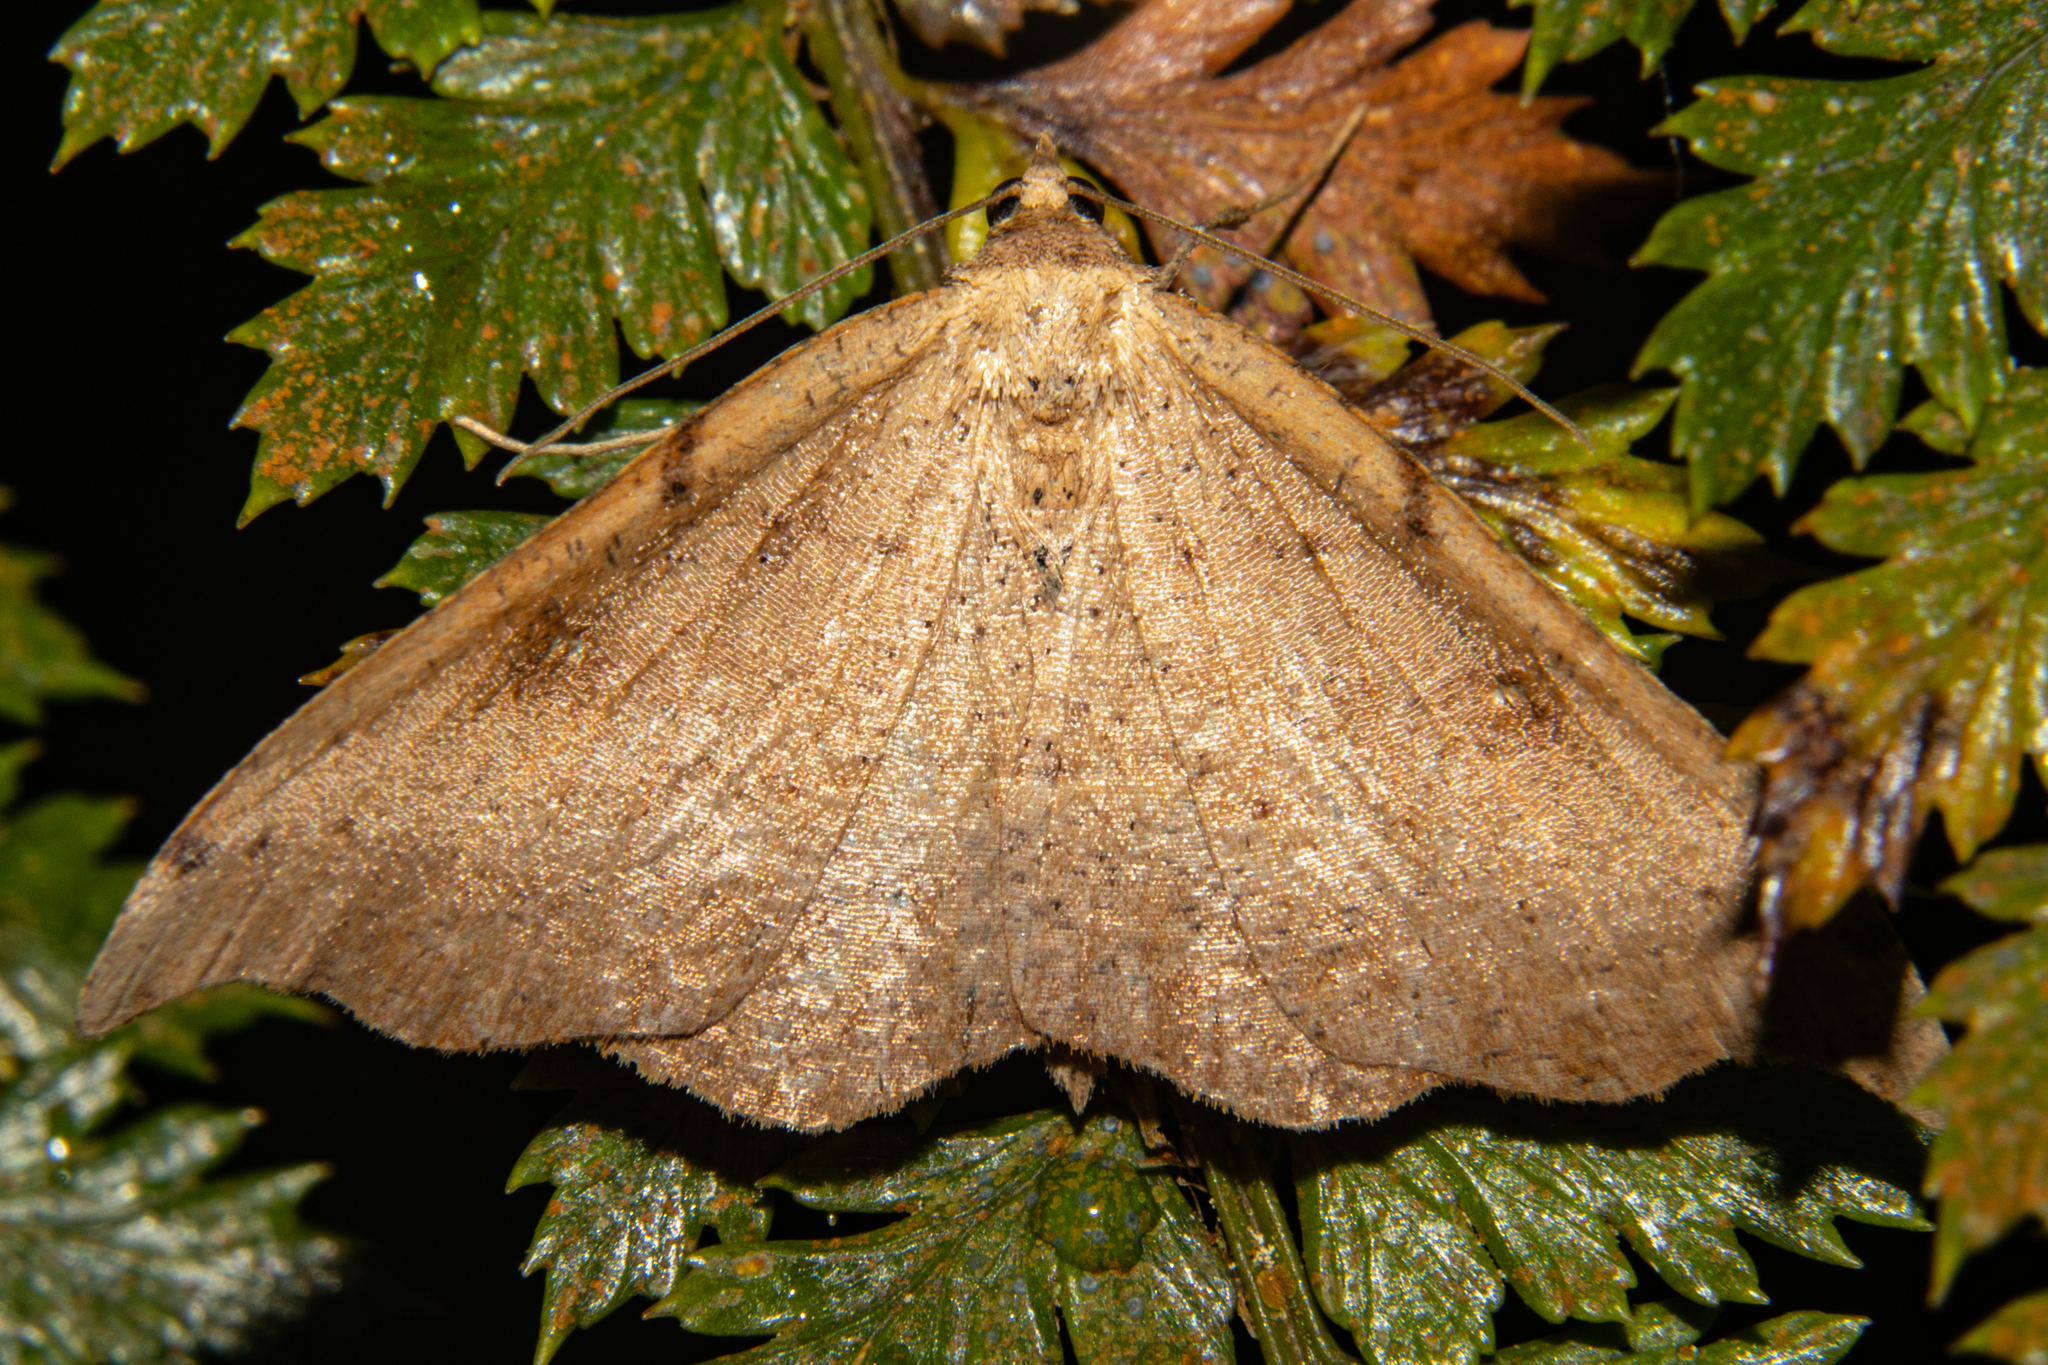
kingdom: Animalia
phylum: Arthropoda
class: Insecta
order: Lepidoptera
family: Geometridae
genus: Sarisa
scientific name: Sarisa muriferata
